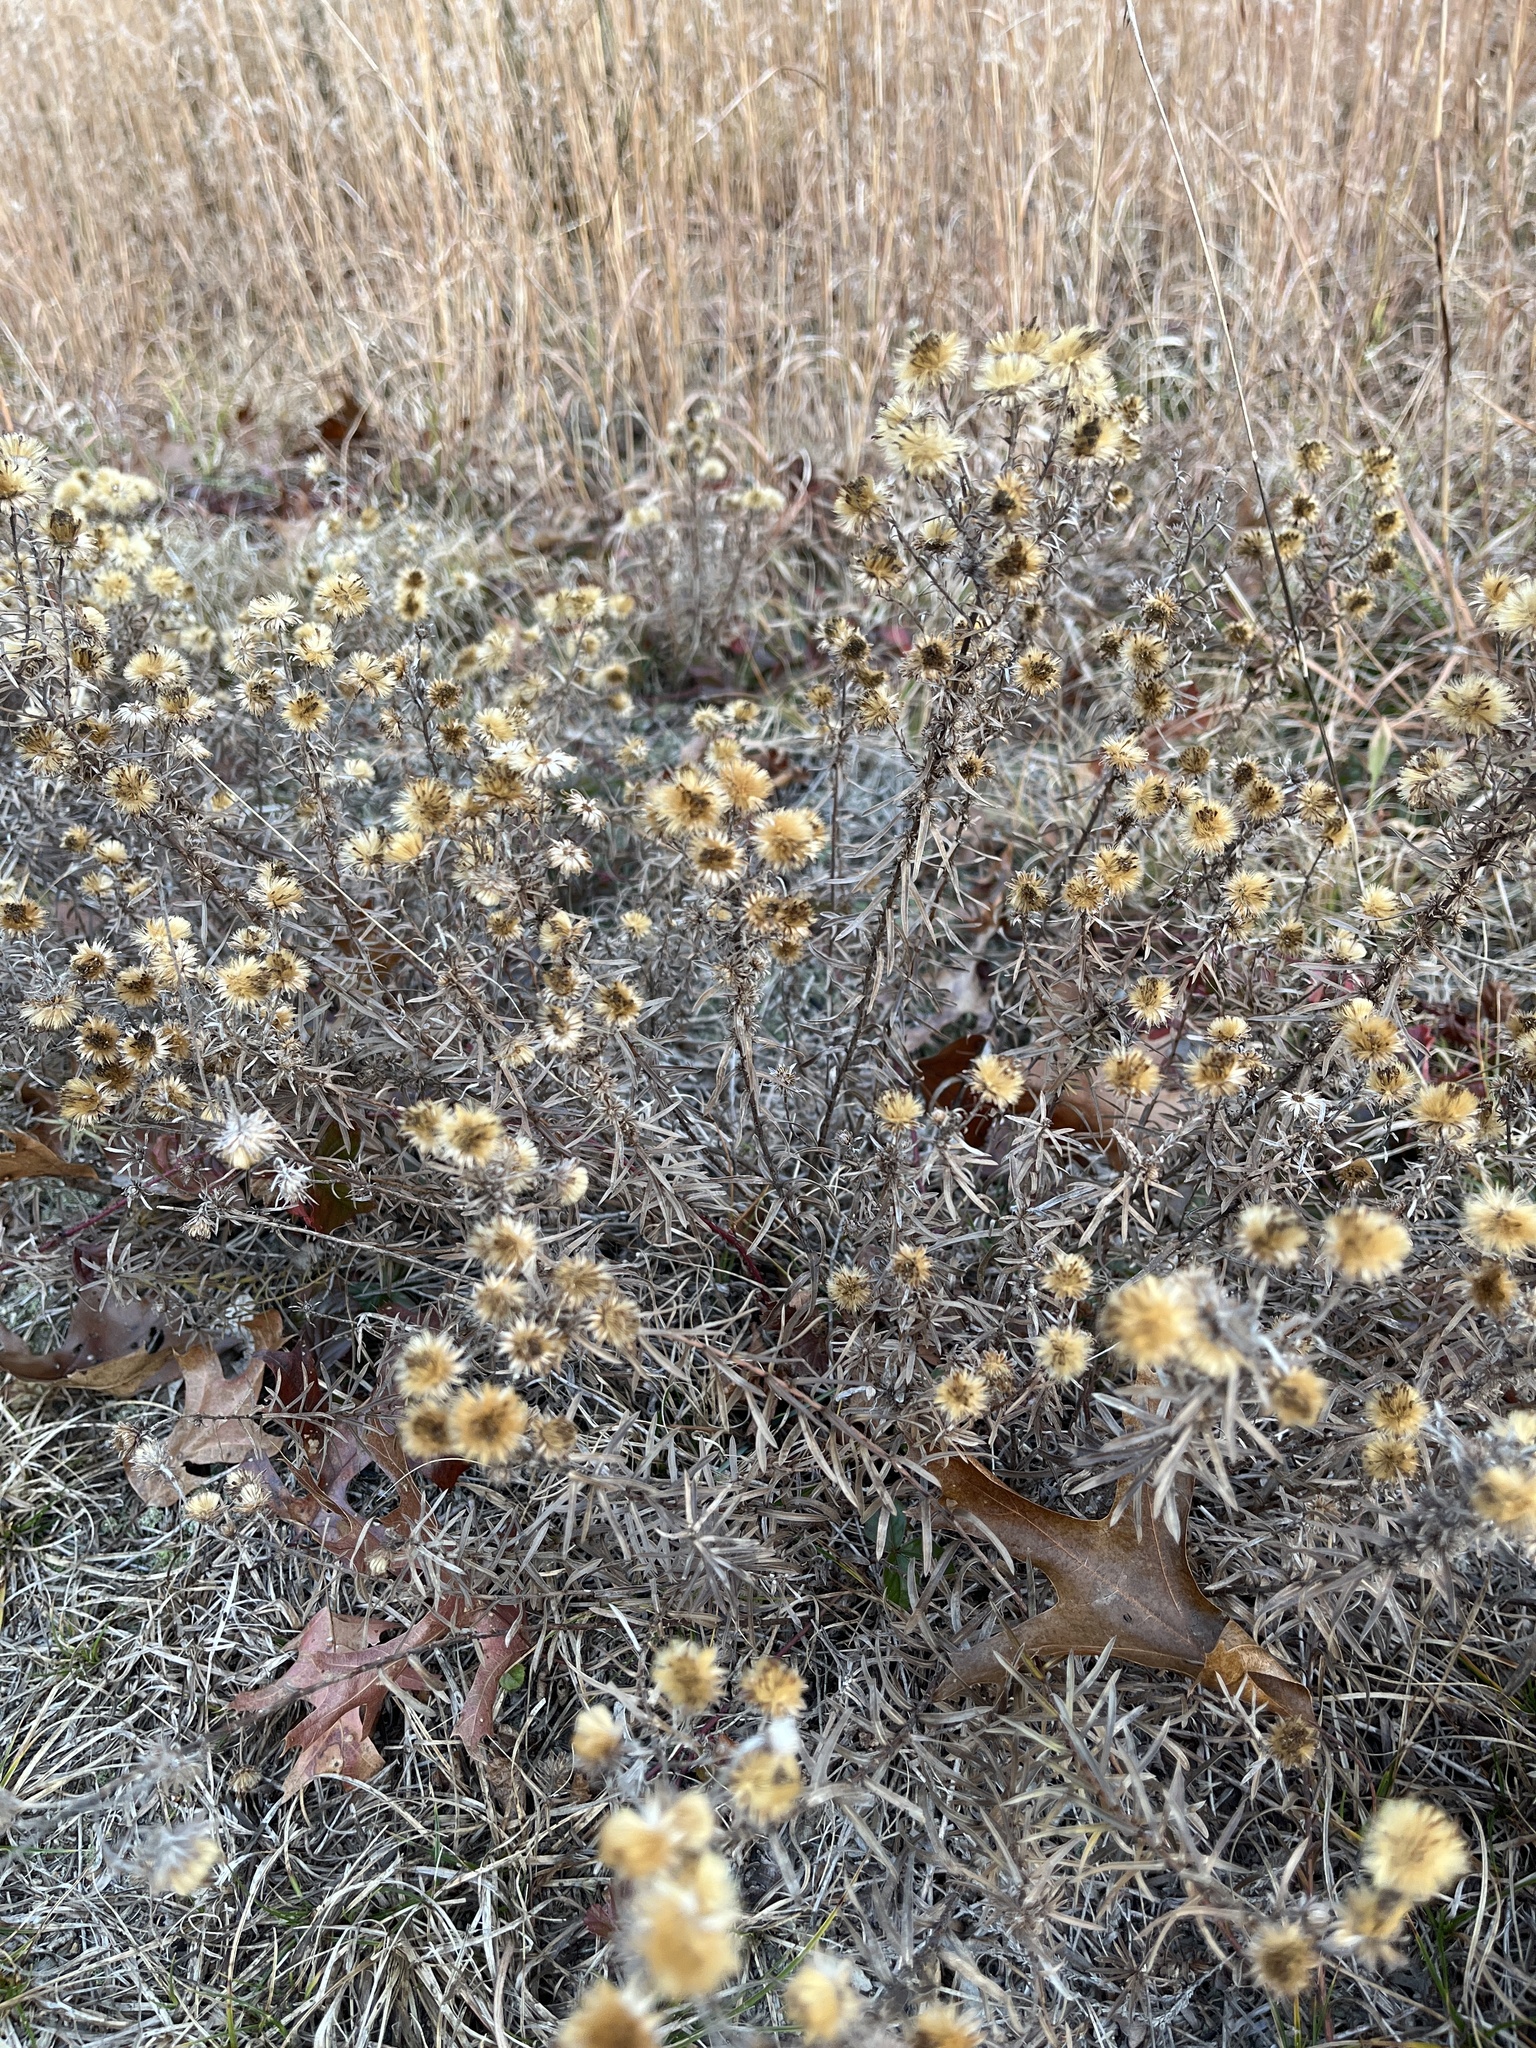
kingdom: Plantae
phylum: Tracheophyta
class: Magnoliopsida
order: Asterales
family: Asteraceae
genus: Ionactis
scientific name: Ionactis linariifolia
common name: Flax-leaf aster
